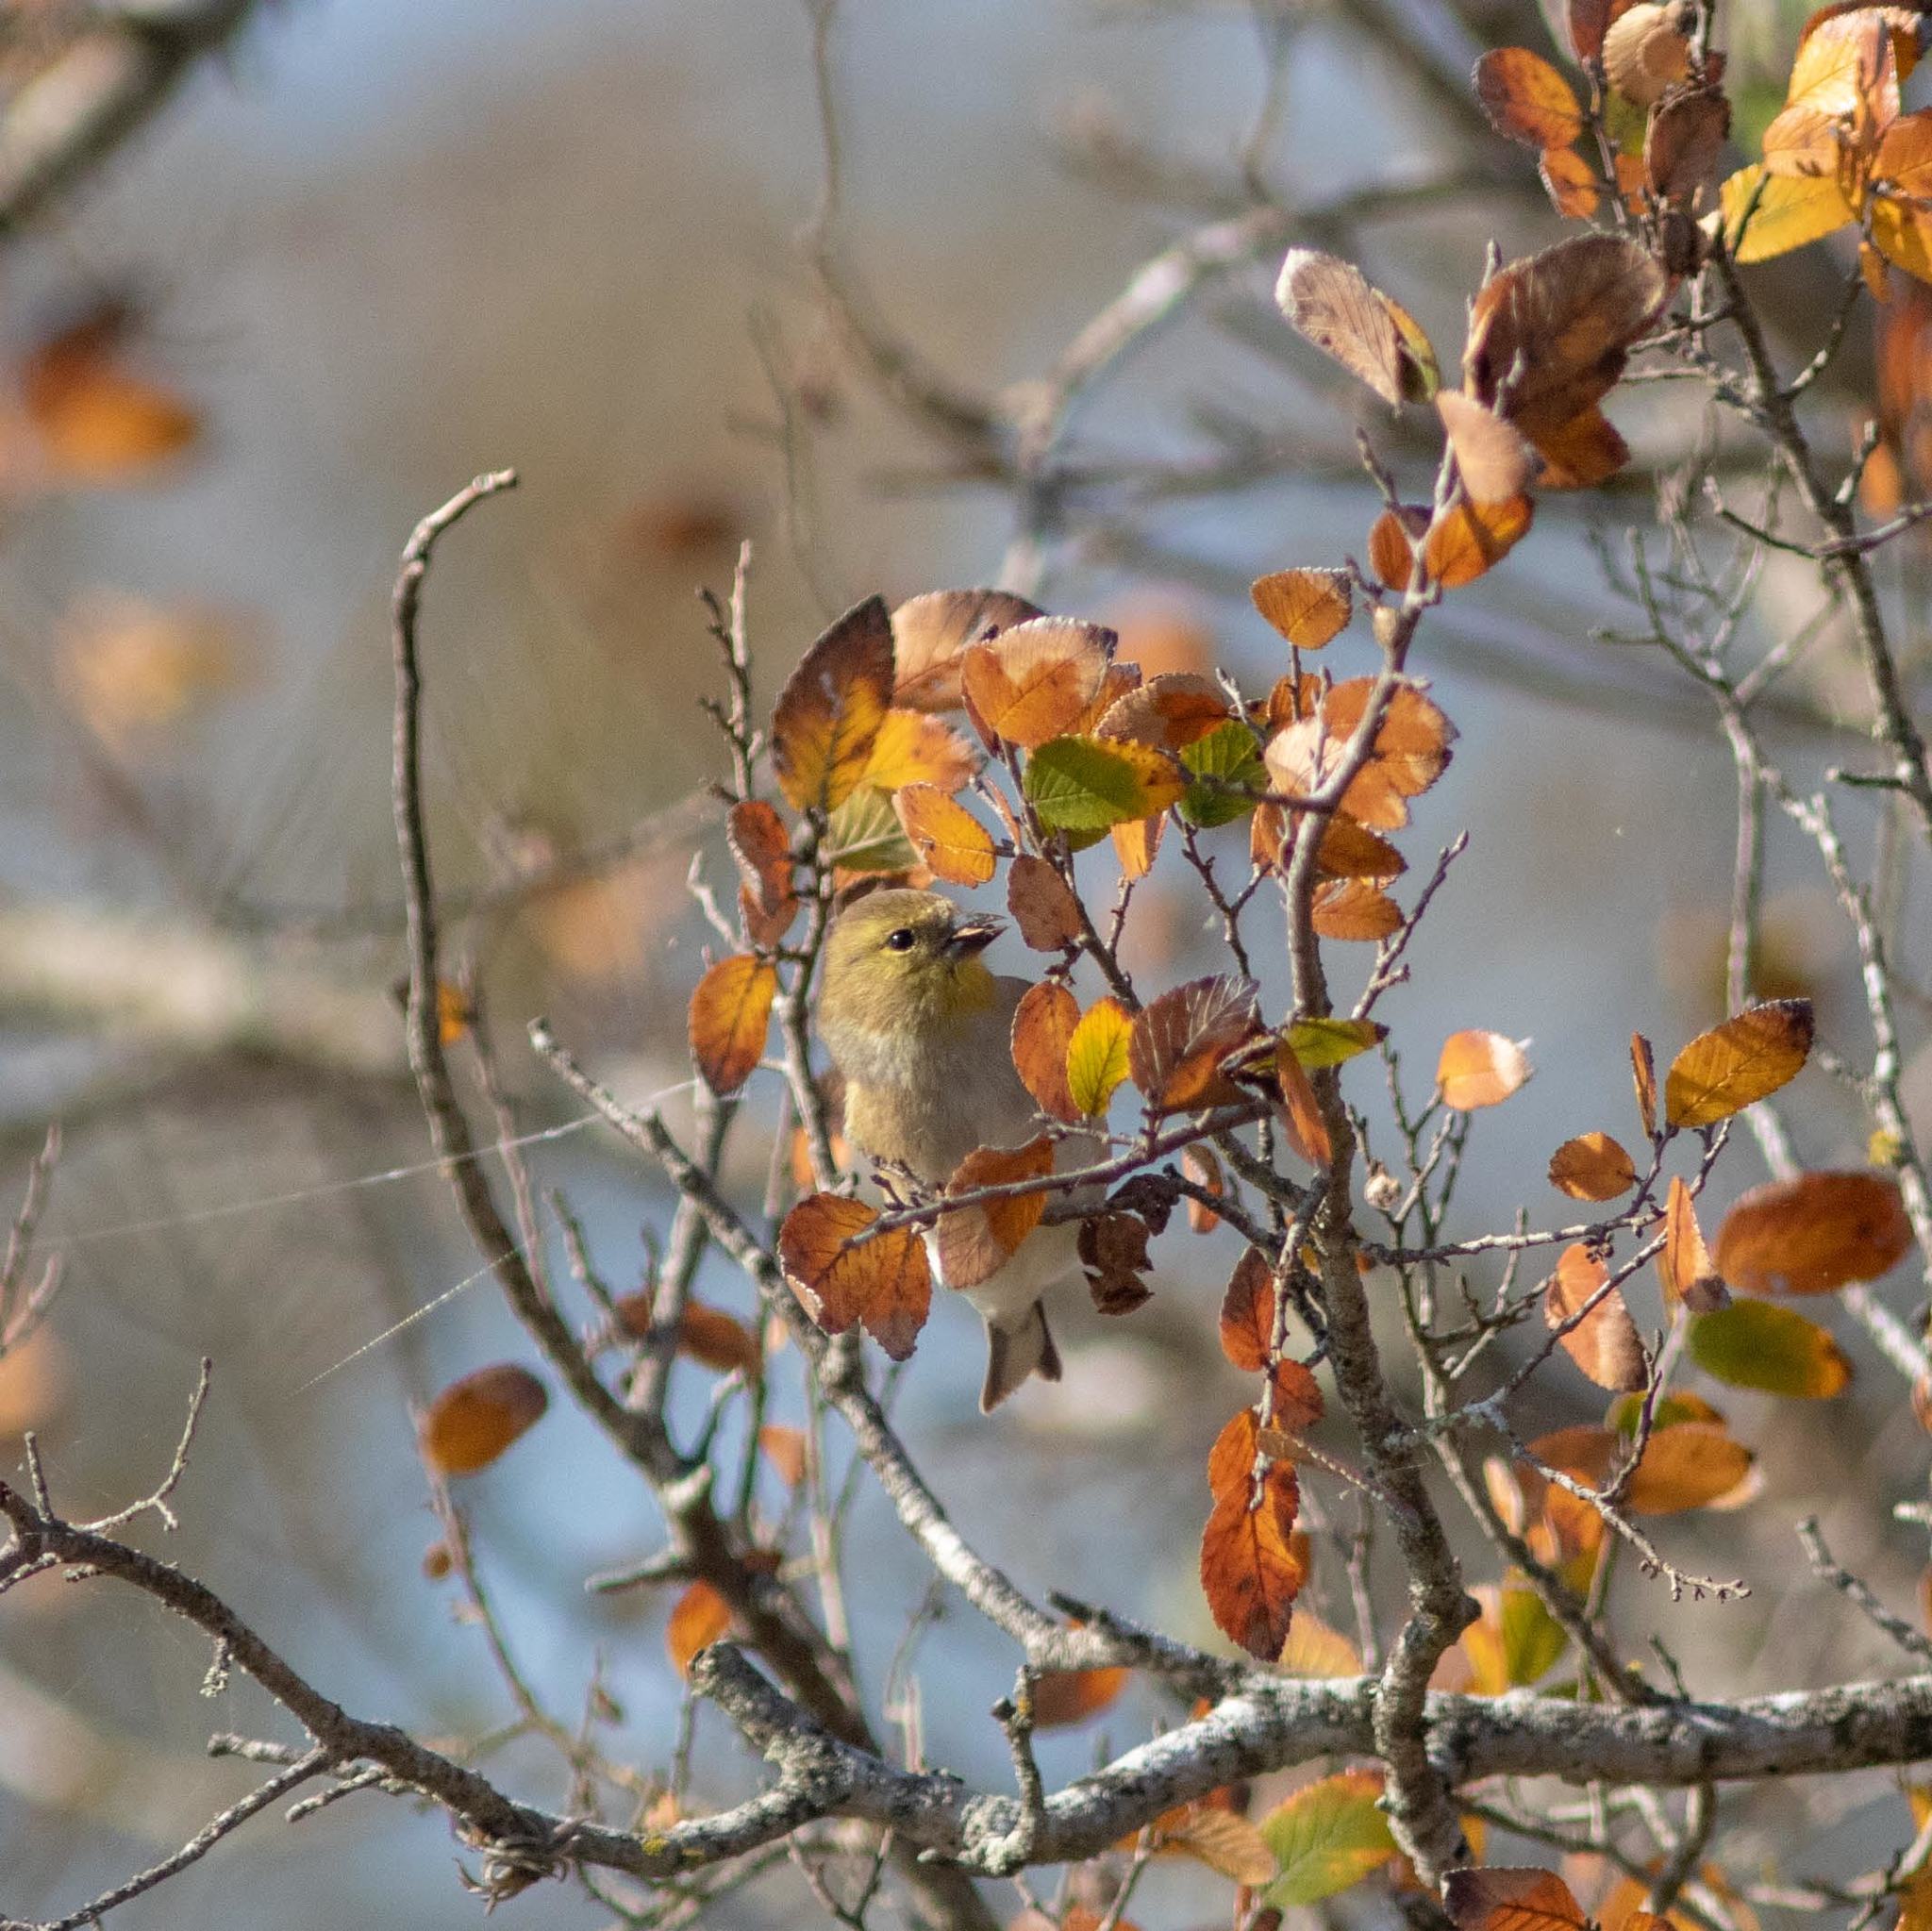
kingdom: Animalia
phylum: Chordata
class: Aves
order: Passeriformes
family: Fringillidae
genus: Spinus
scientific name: Spinus tristis
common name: American goldfinch
